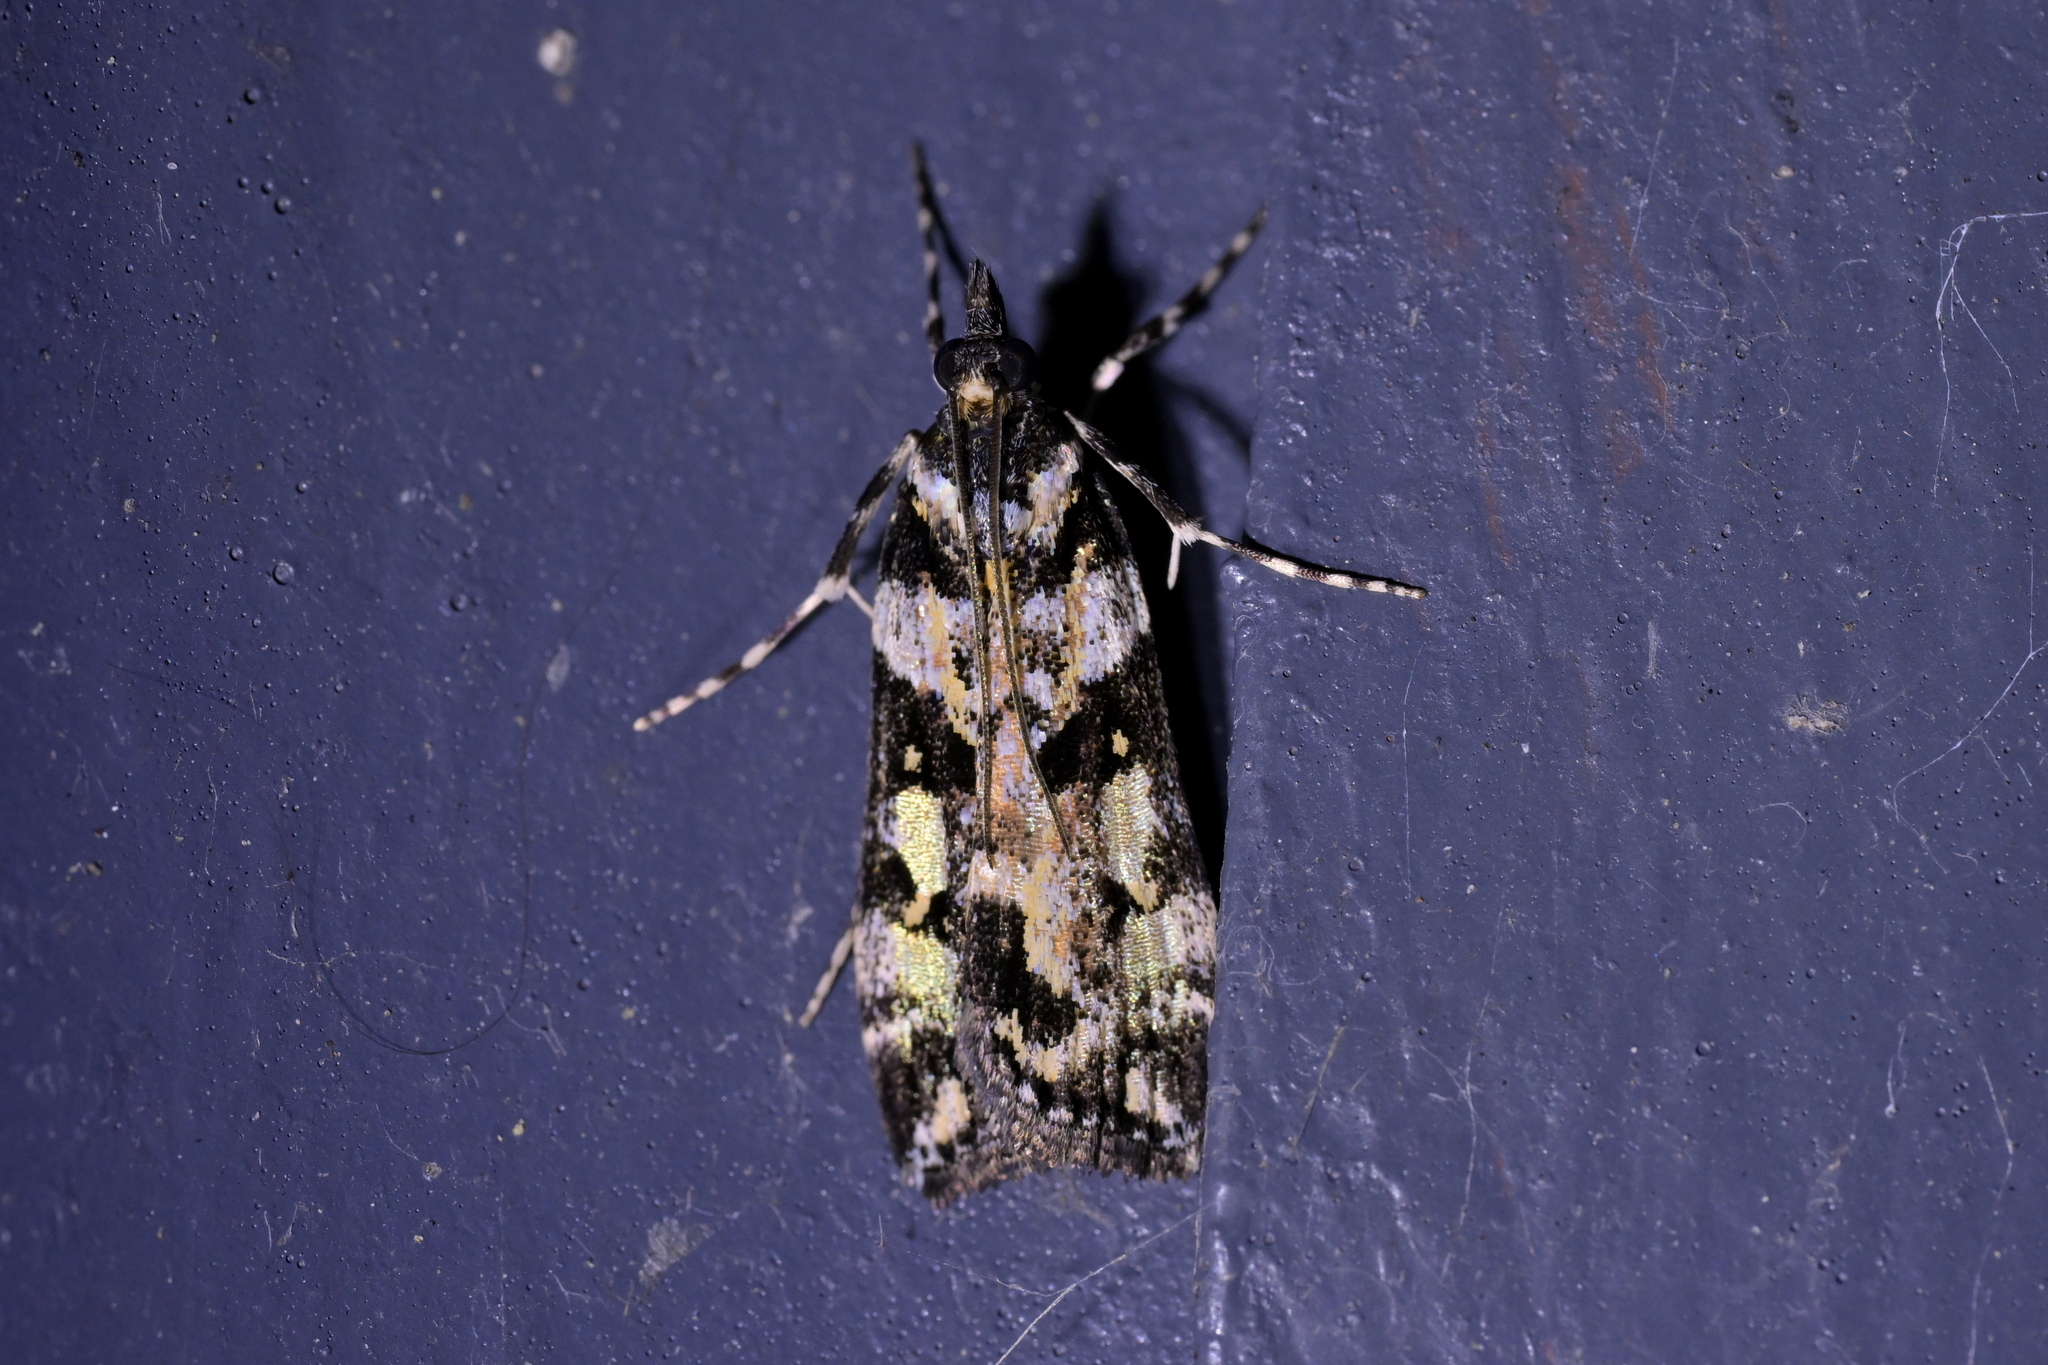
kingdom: Animalia
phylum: Arthropoda
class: Insecta
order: Lepidoptera
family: Crambidae
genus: Eudonia
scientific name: Eudonia diphtheralis
